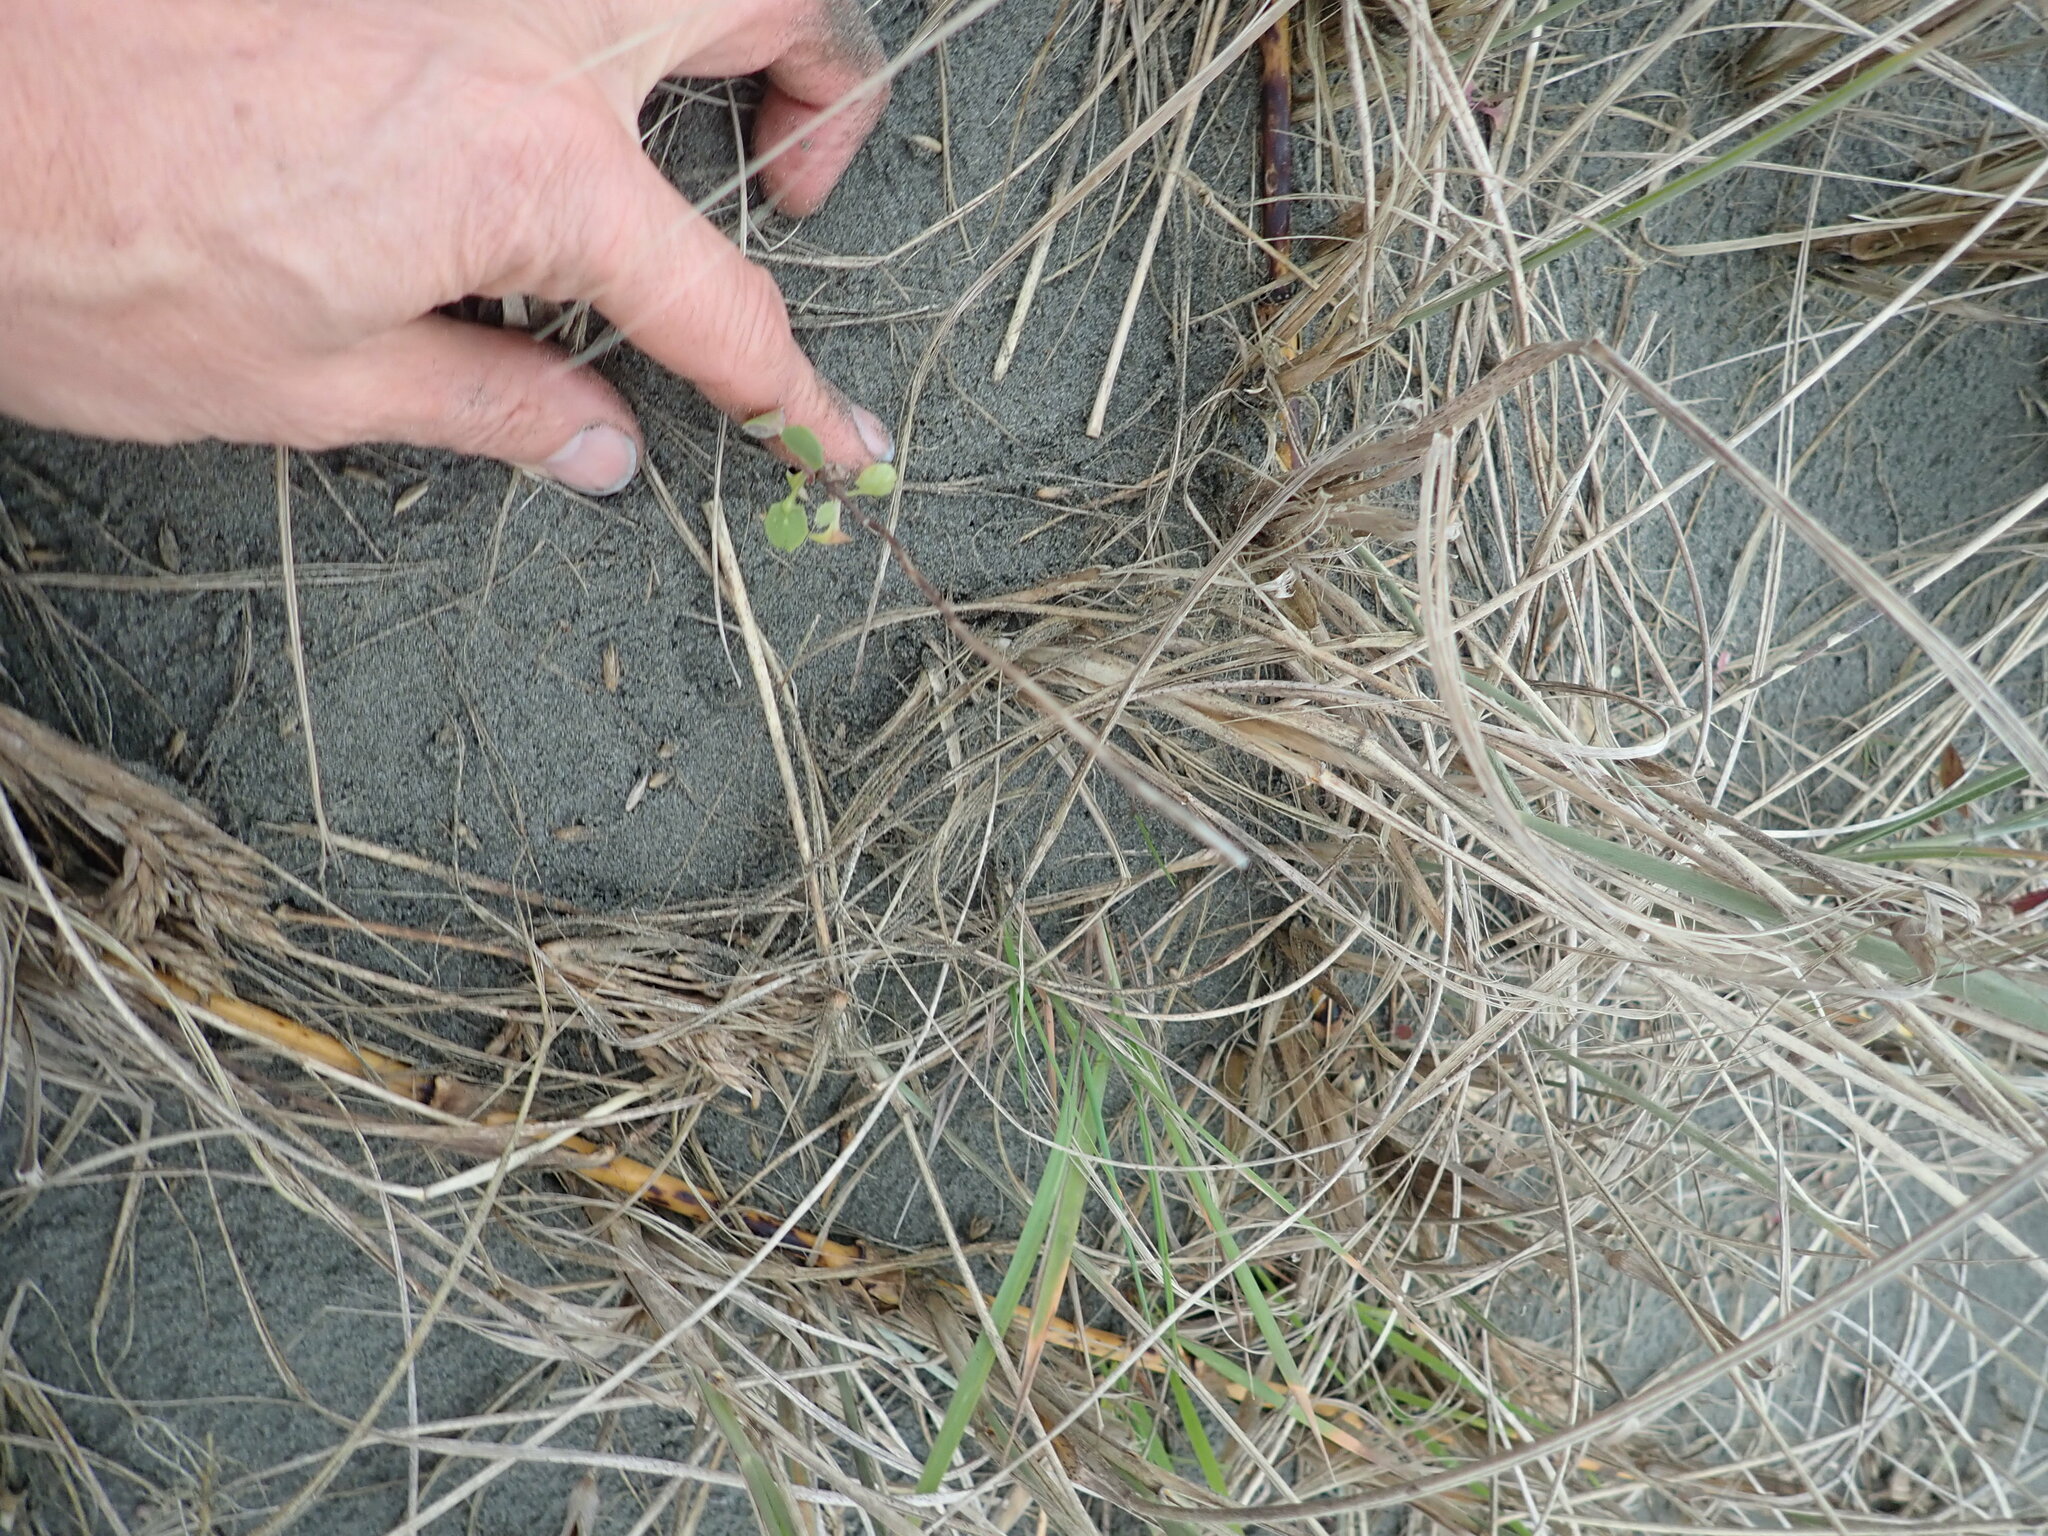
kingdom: Plantae
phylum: Tracheophyta
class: Magnoliopsida
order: Asterales
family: Asteraceae
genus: Sonchus
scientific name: Sonchus oleraceus
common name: Common sowthistle
